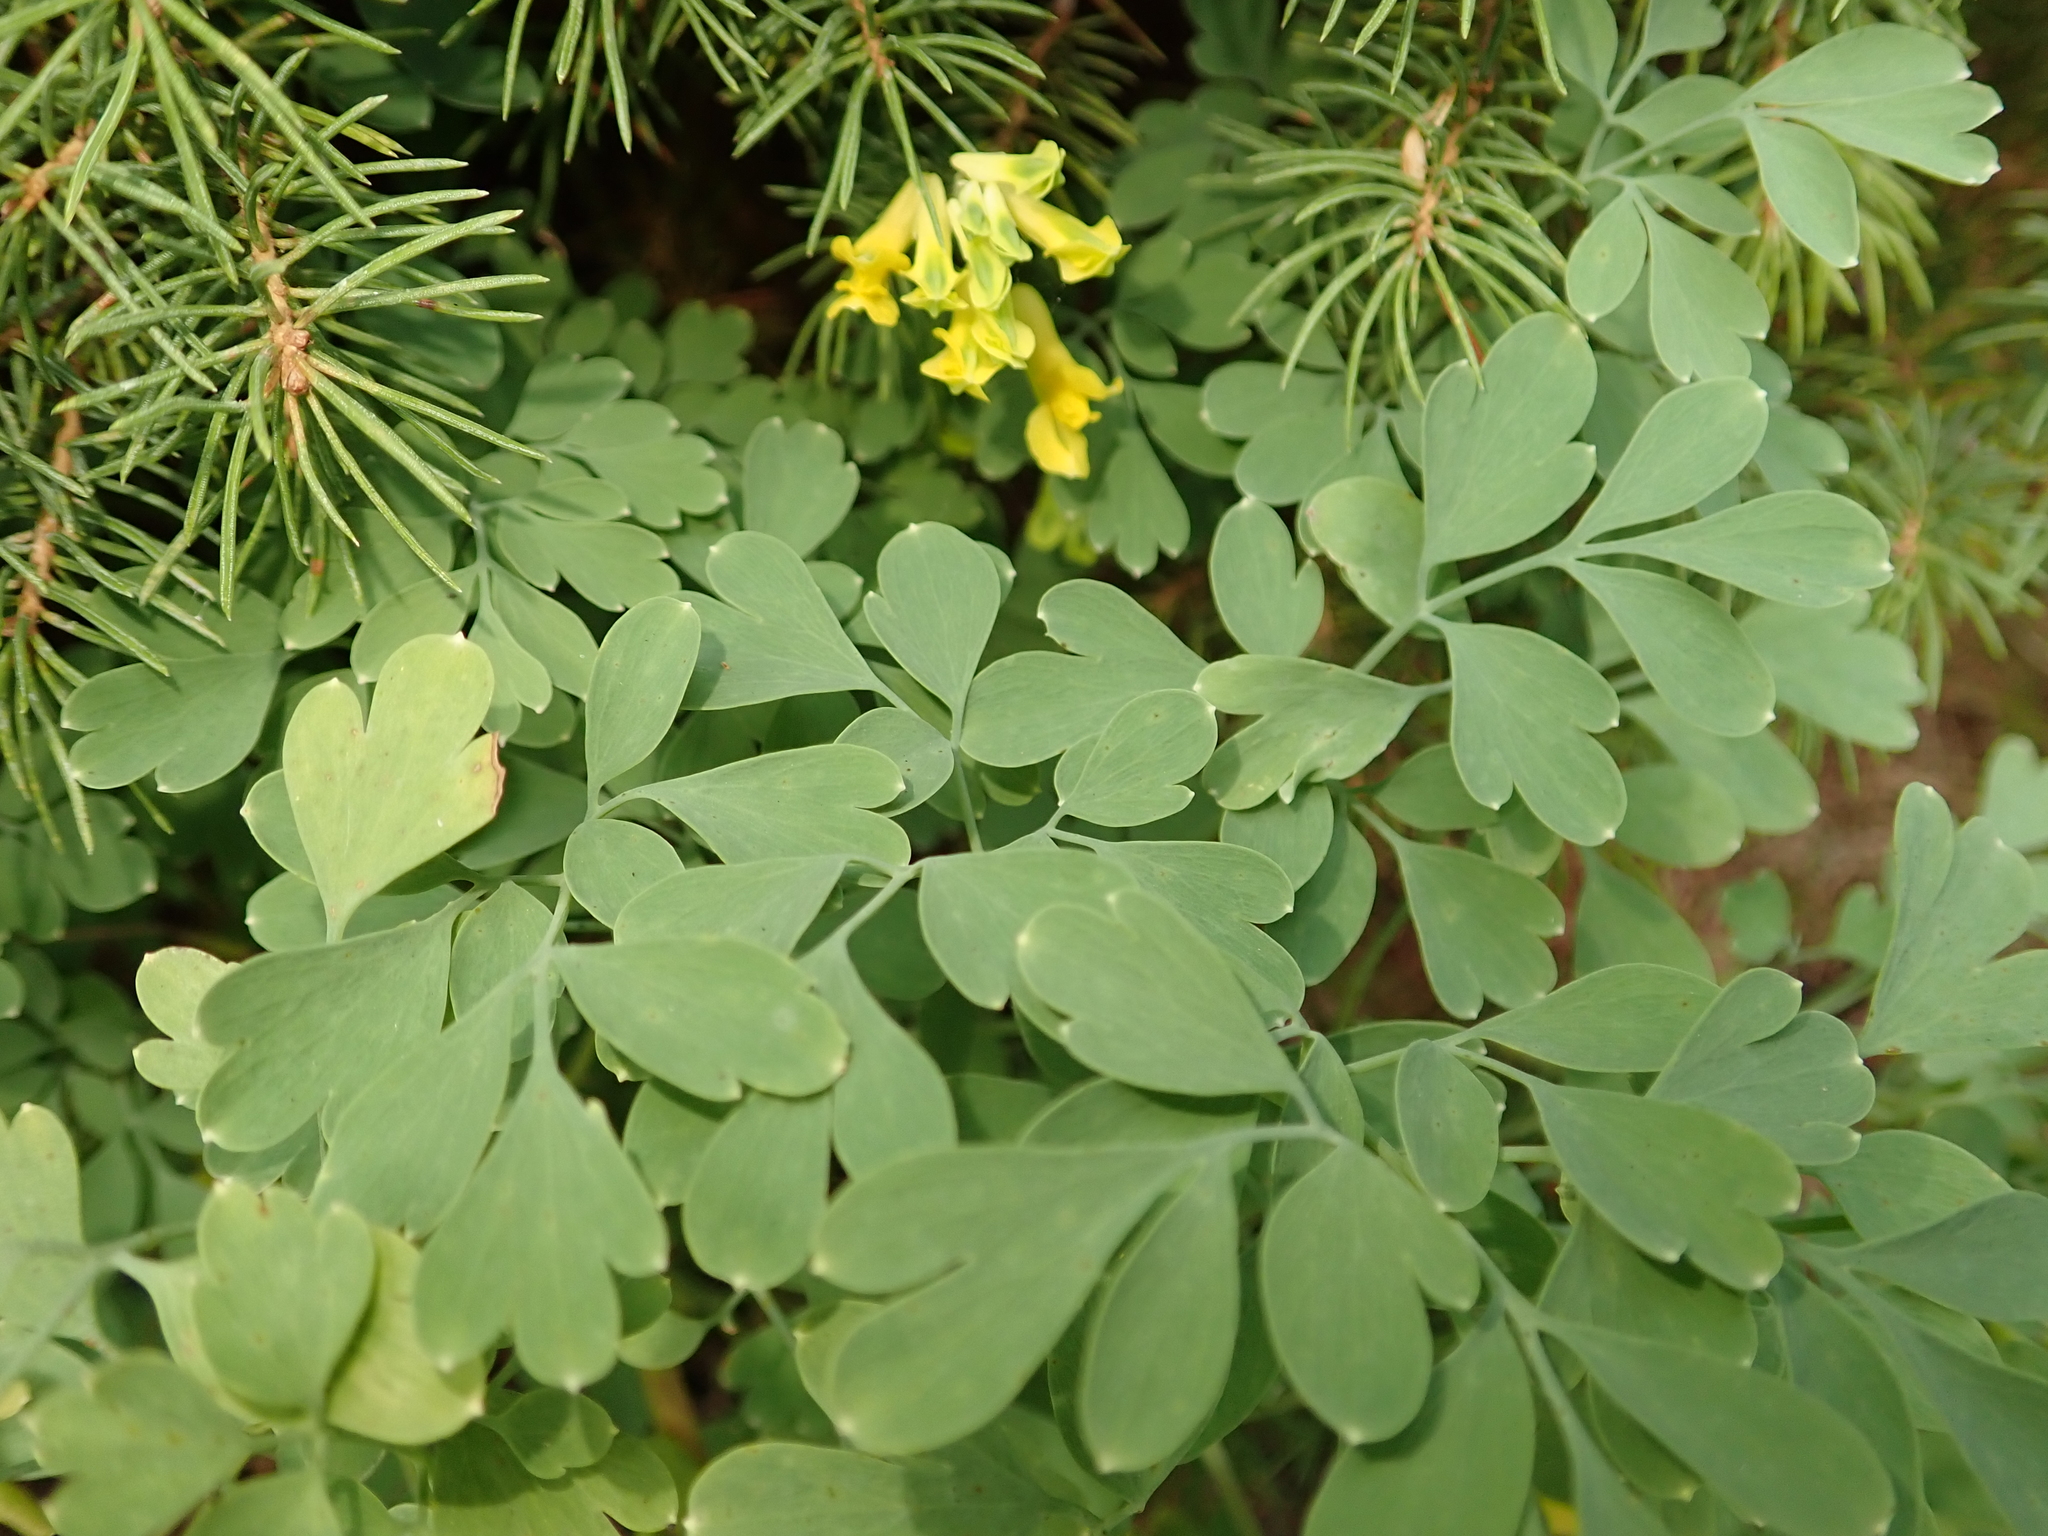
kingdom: Plantae
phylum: Tracheophyta
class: Magnoliopsida
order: Ranunculales
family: Papaveraceae
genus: Pseudofumaria
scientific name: Pseudofumaria lutea
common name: Yellow corydalis
